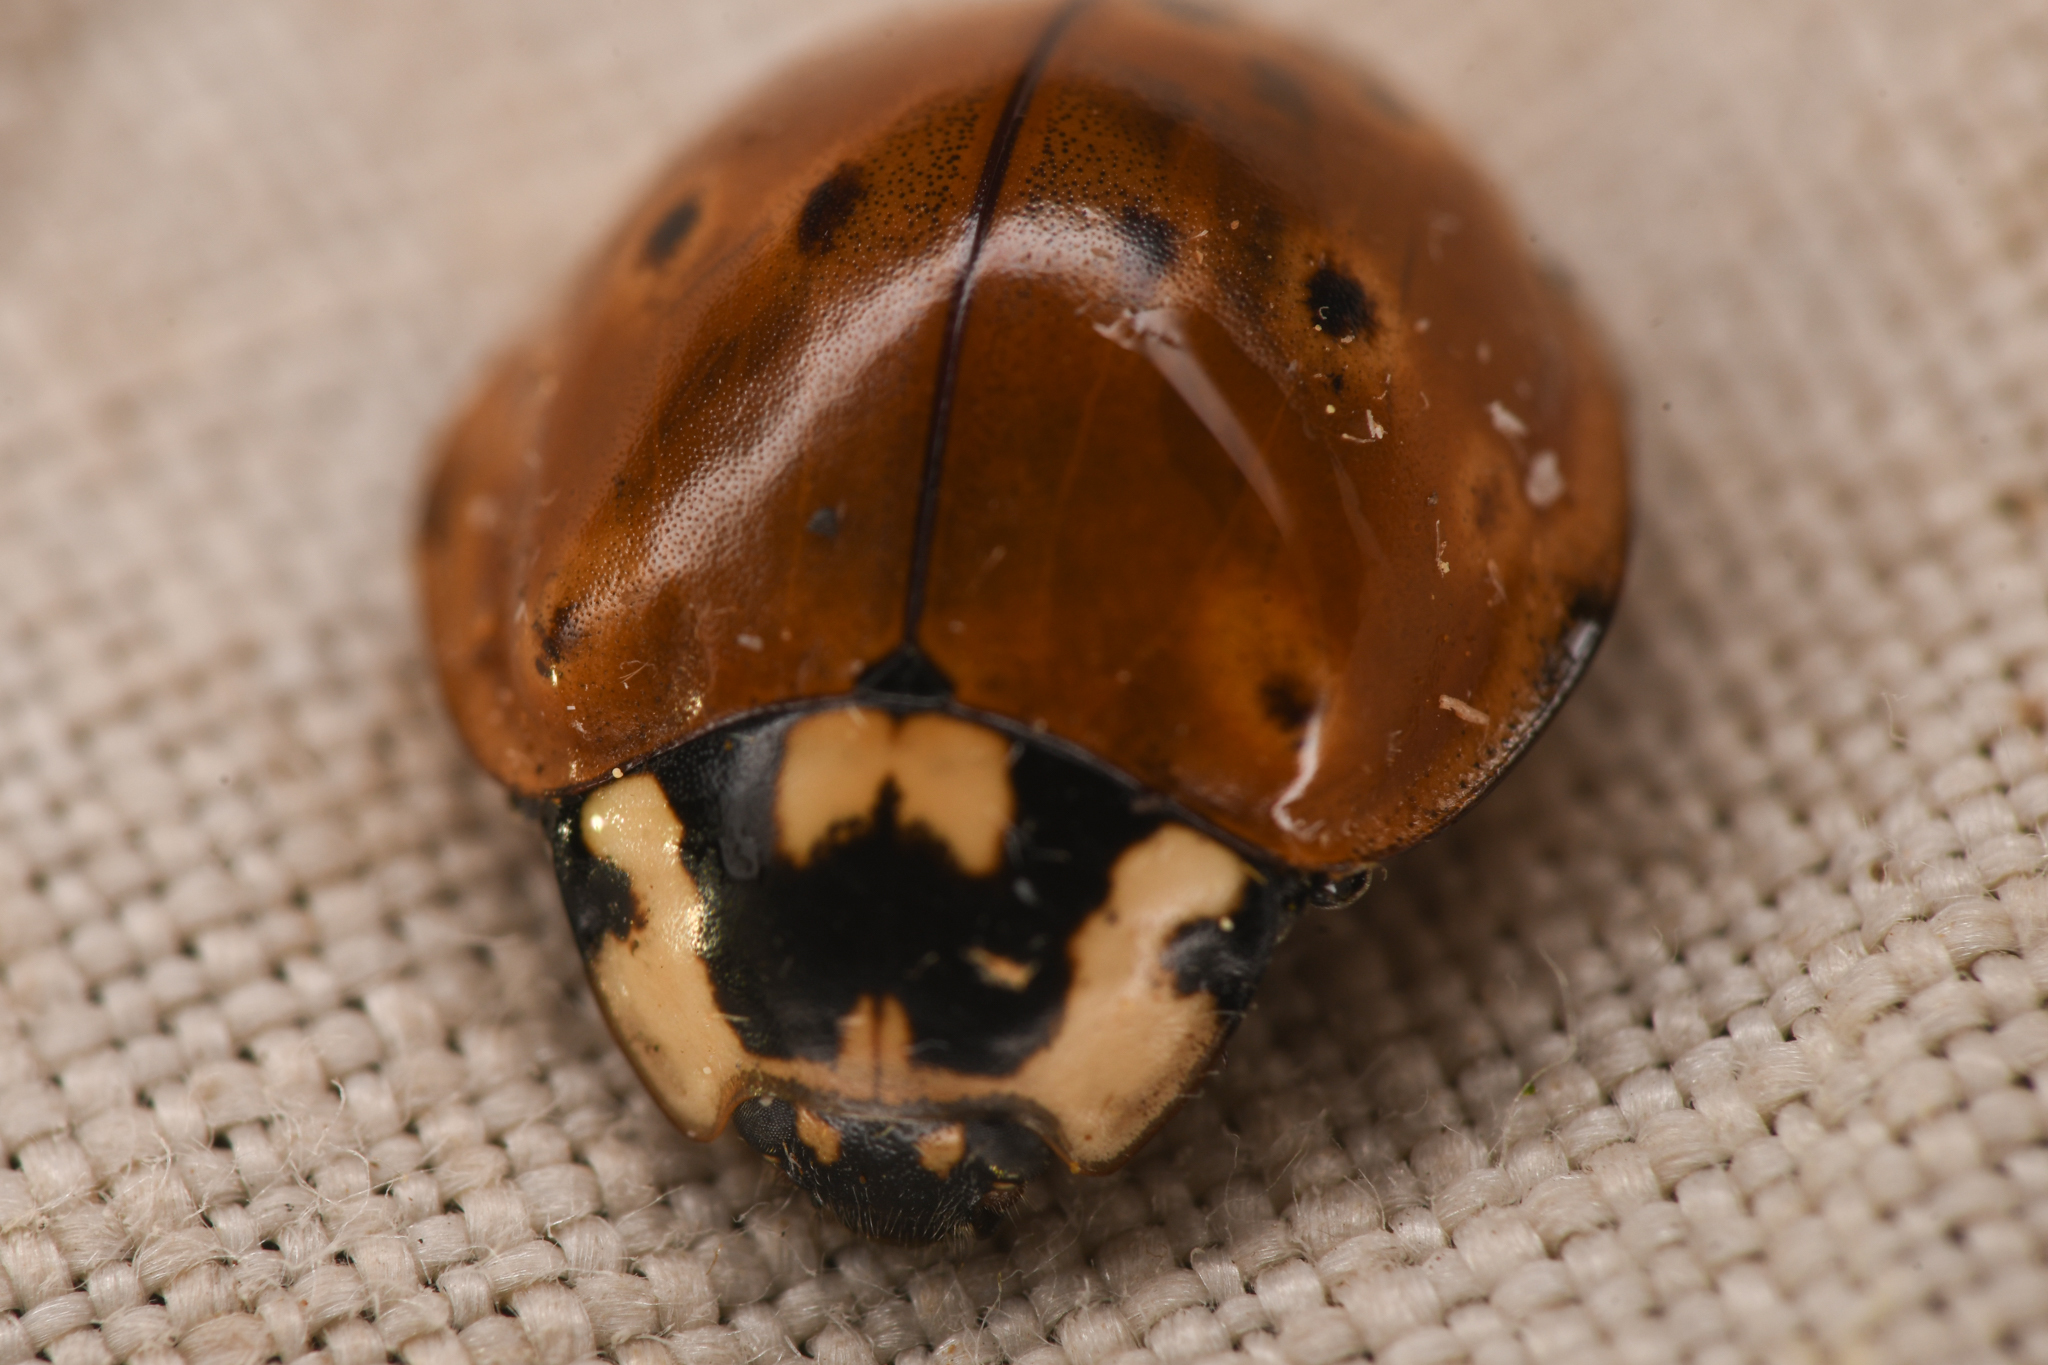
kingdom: Animalia
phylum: Arthropoda
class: Insecta
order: Coleoptera
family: Coccinellidae
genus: Anatis
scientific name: Anatis rathvoni
